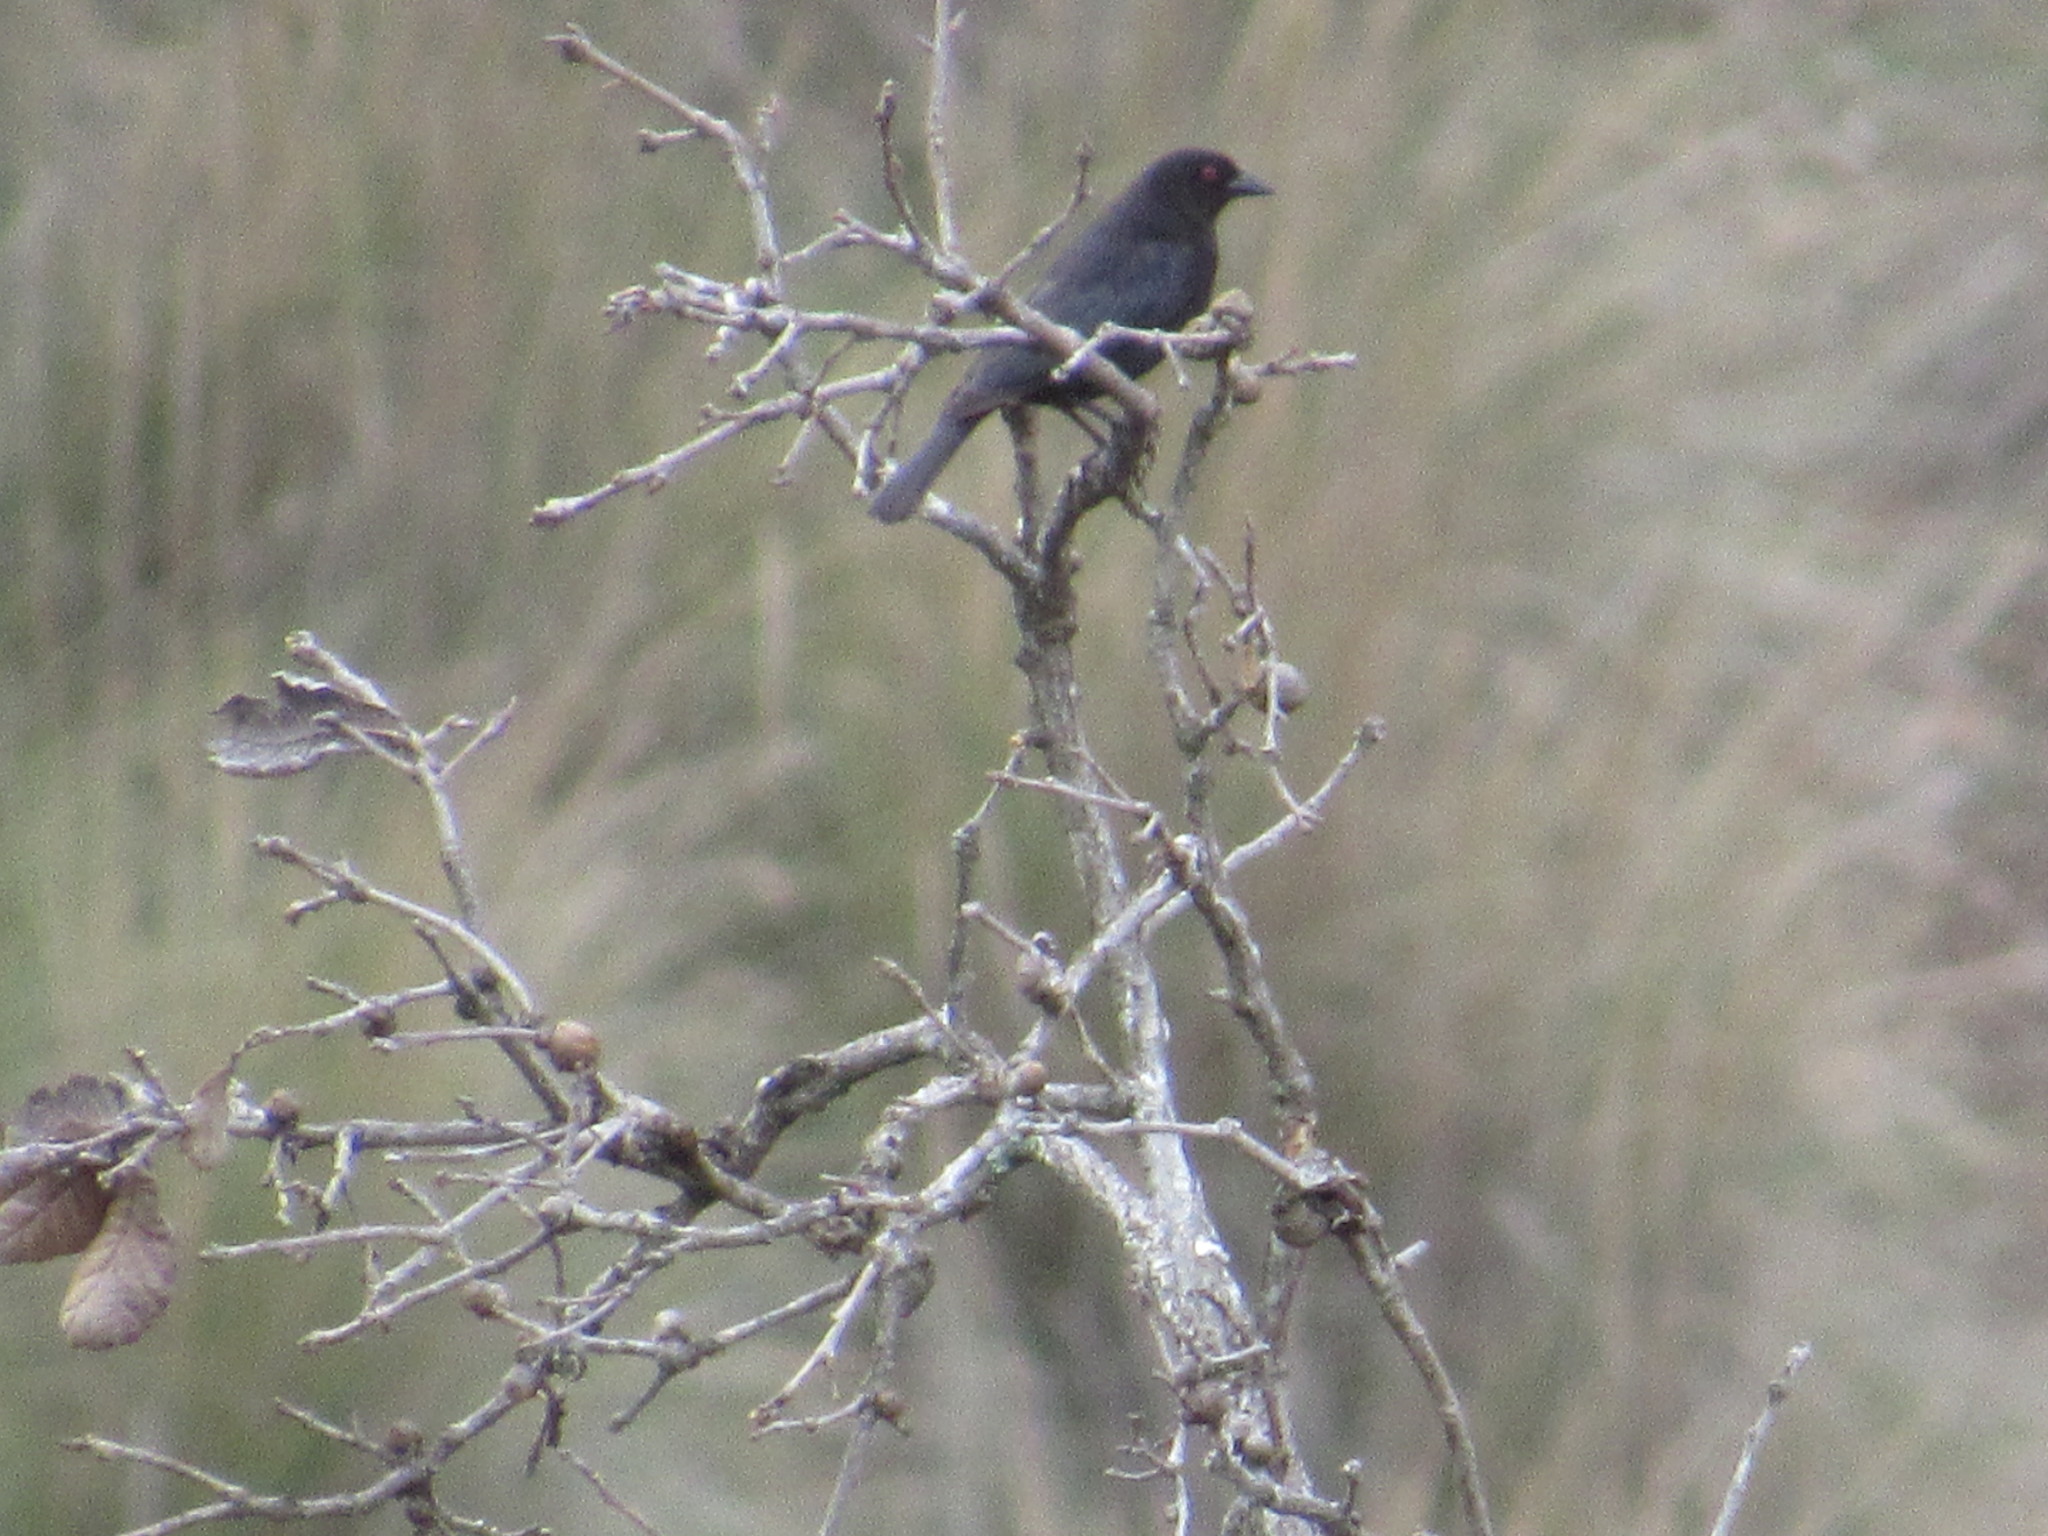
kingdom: Animalia
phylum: Chordata
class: Aves
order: Passeriformes
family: Icteridae
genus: Molothrus
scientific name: Molothrus aeneus
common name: Bronzed cowbird
